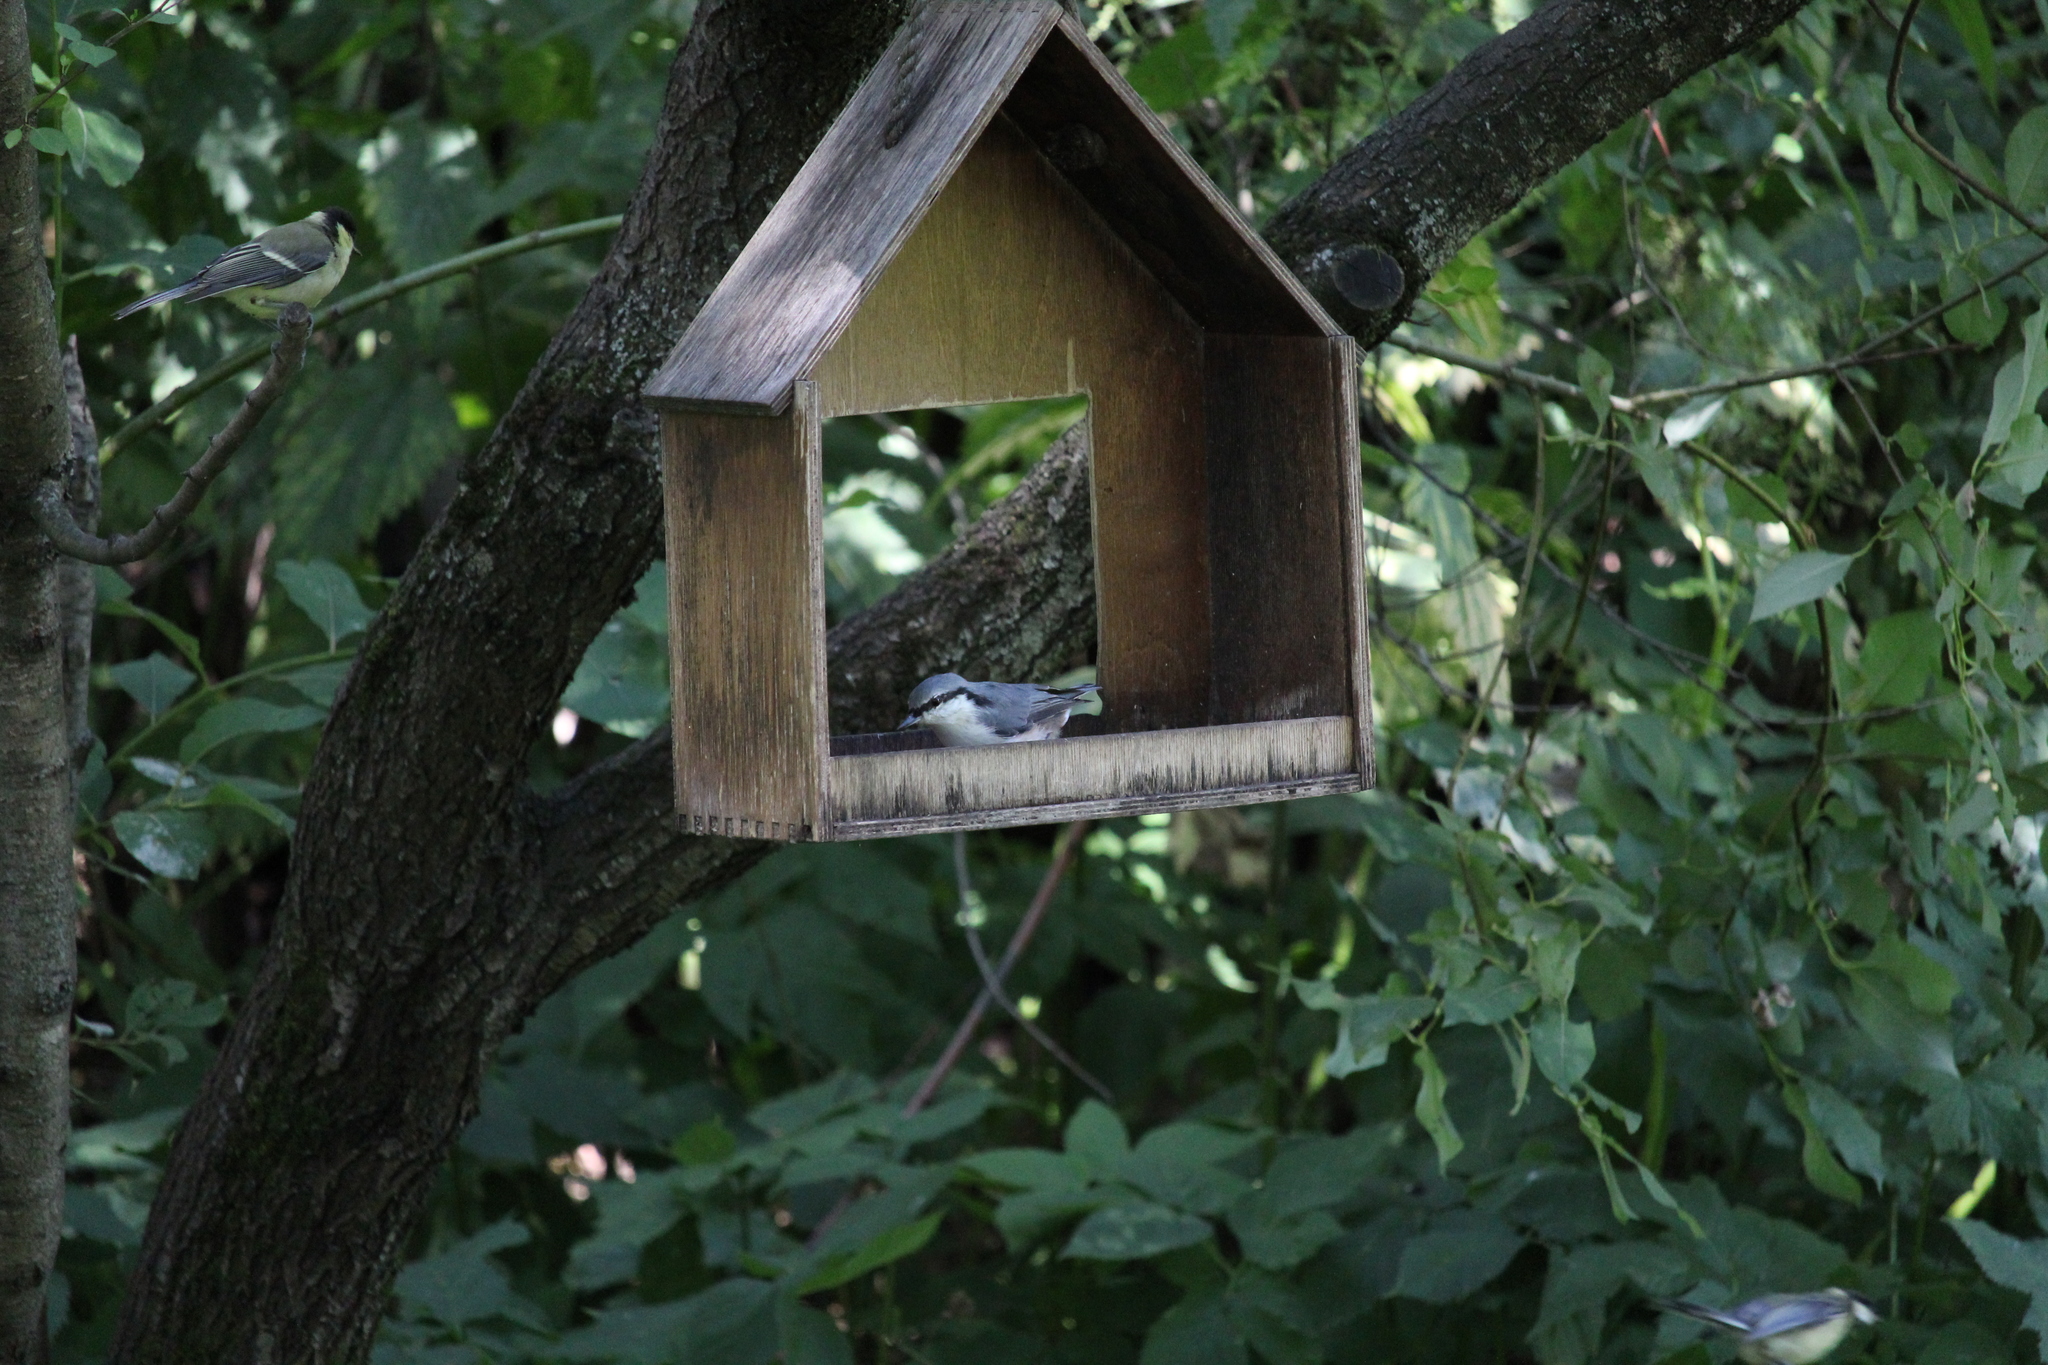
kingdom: Animalia
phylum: Chordata
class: Aves
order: Passeriformes
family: Sittidae
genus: Sitta
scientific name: Sitta europaea
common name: Eurasian nuthatch
